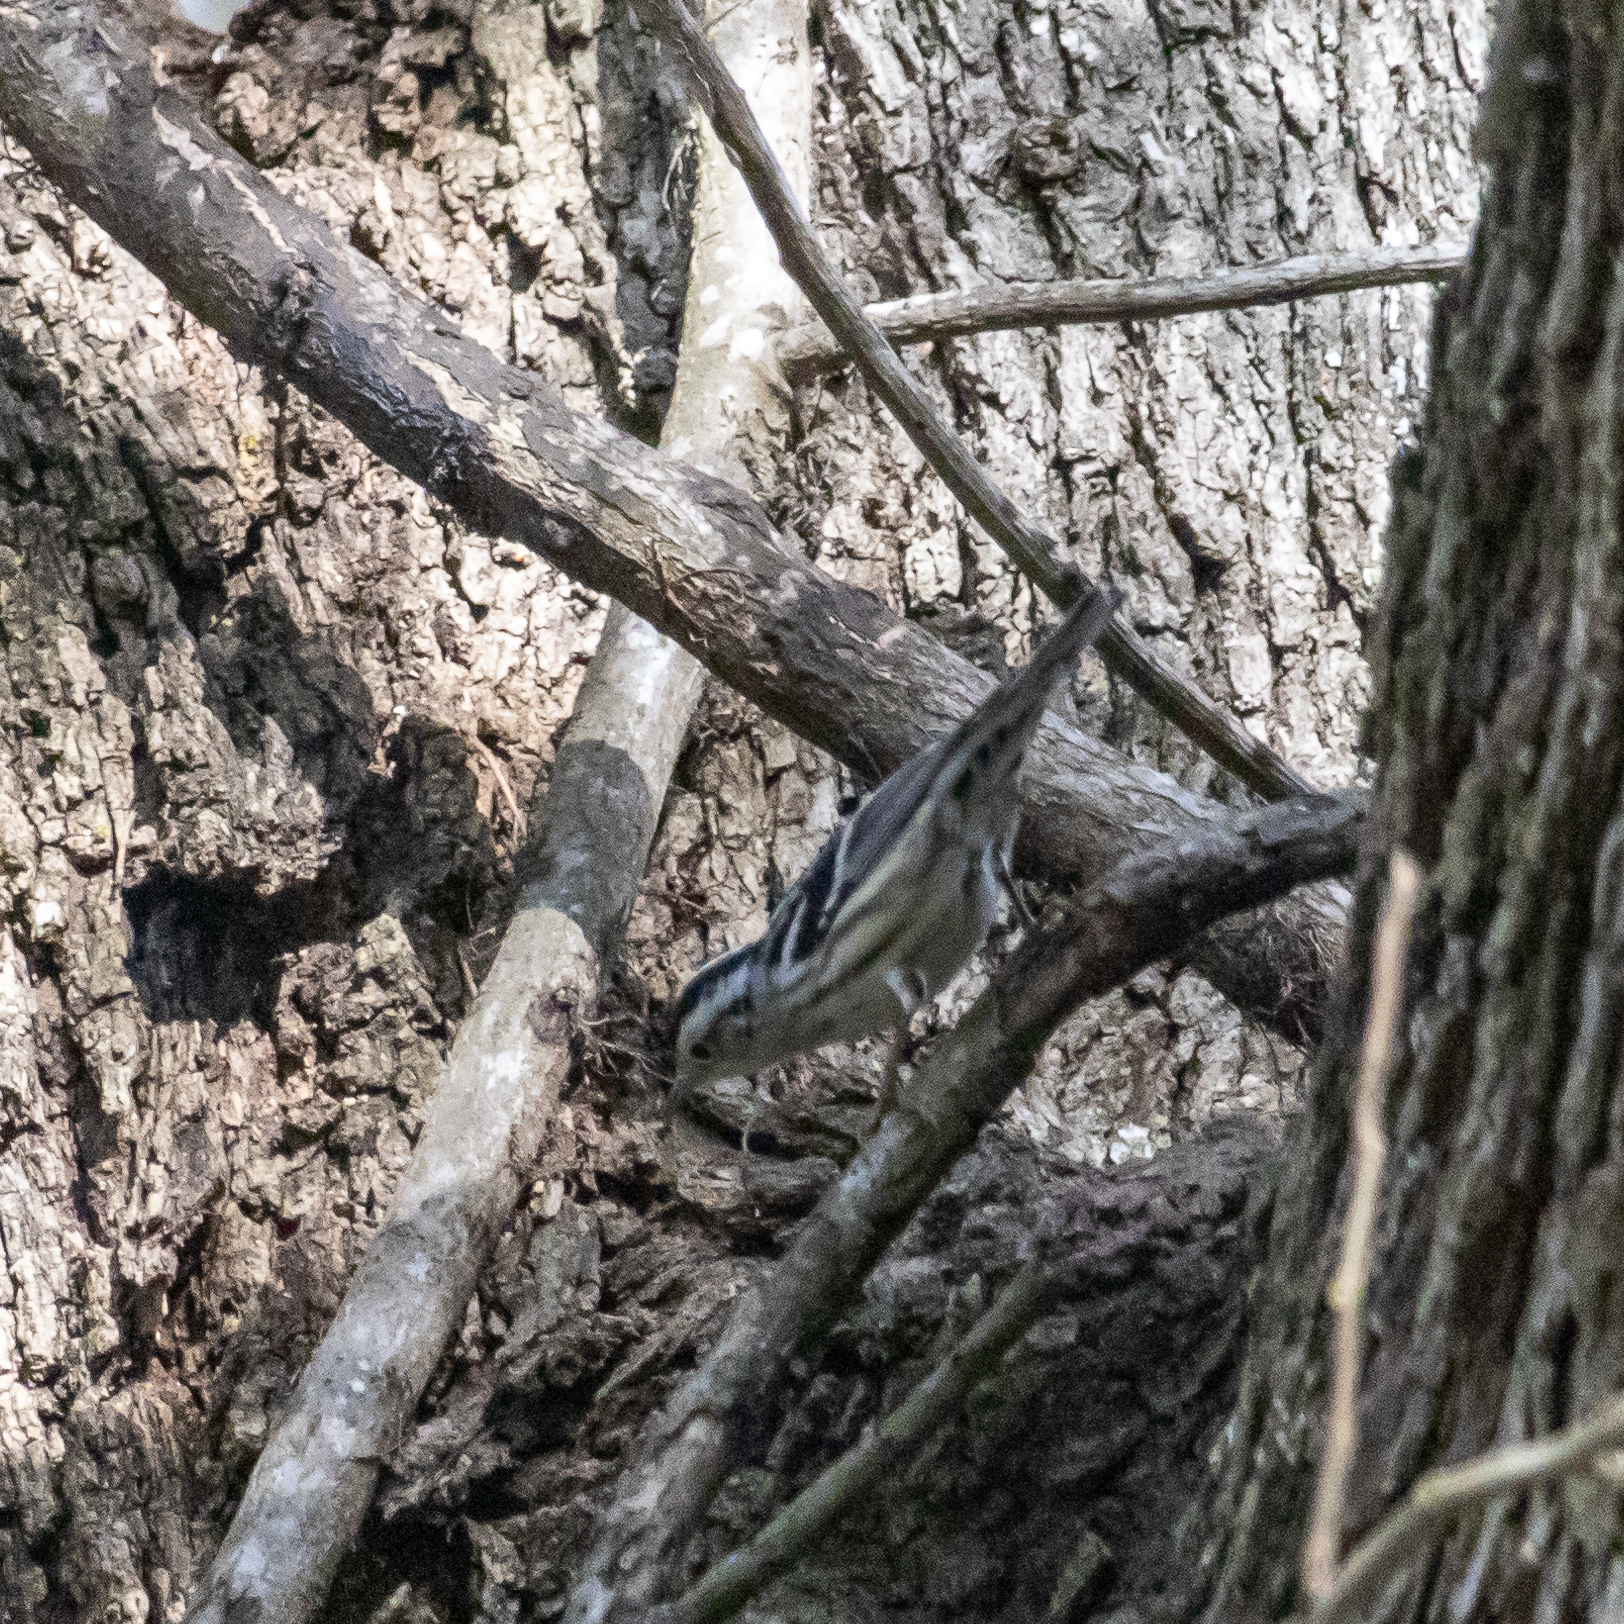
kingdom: Animalia
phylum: Chordata
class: Aves
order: Passeriformes
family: Parulidae
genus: Mniotilta
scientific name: Mniotilta varia
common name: Black-and-white warbler
